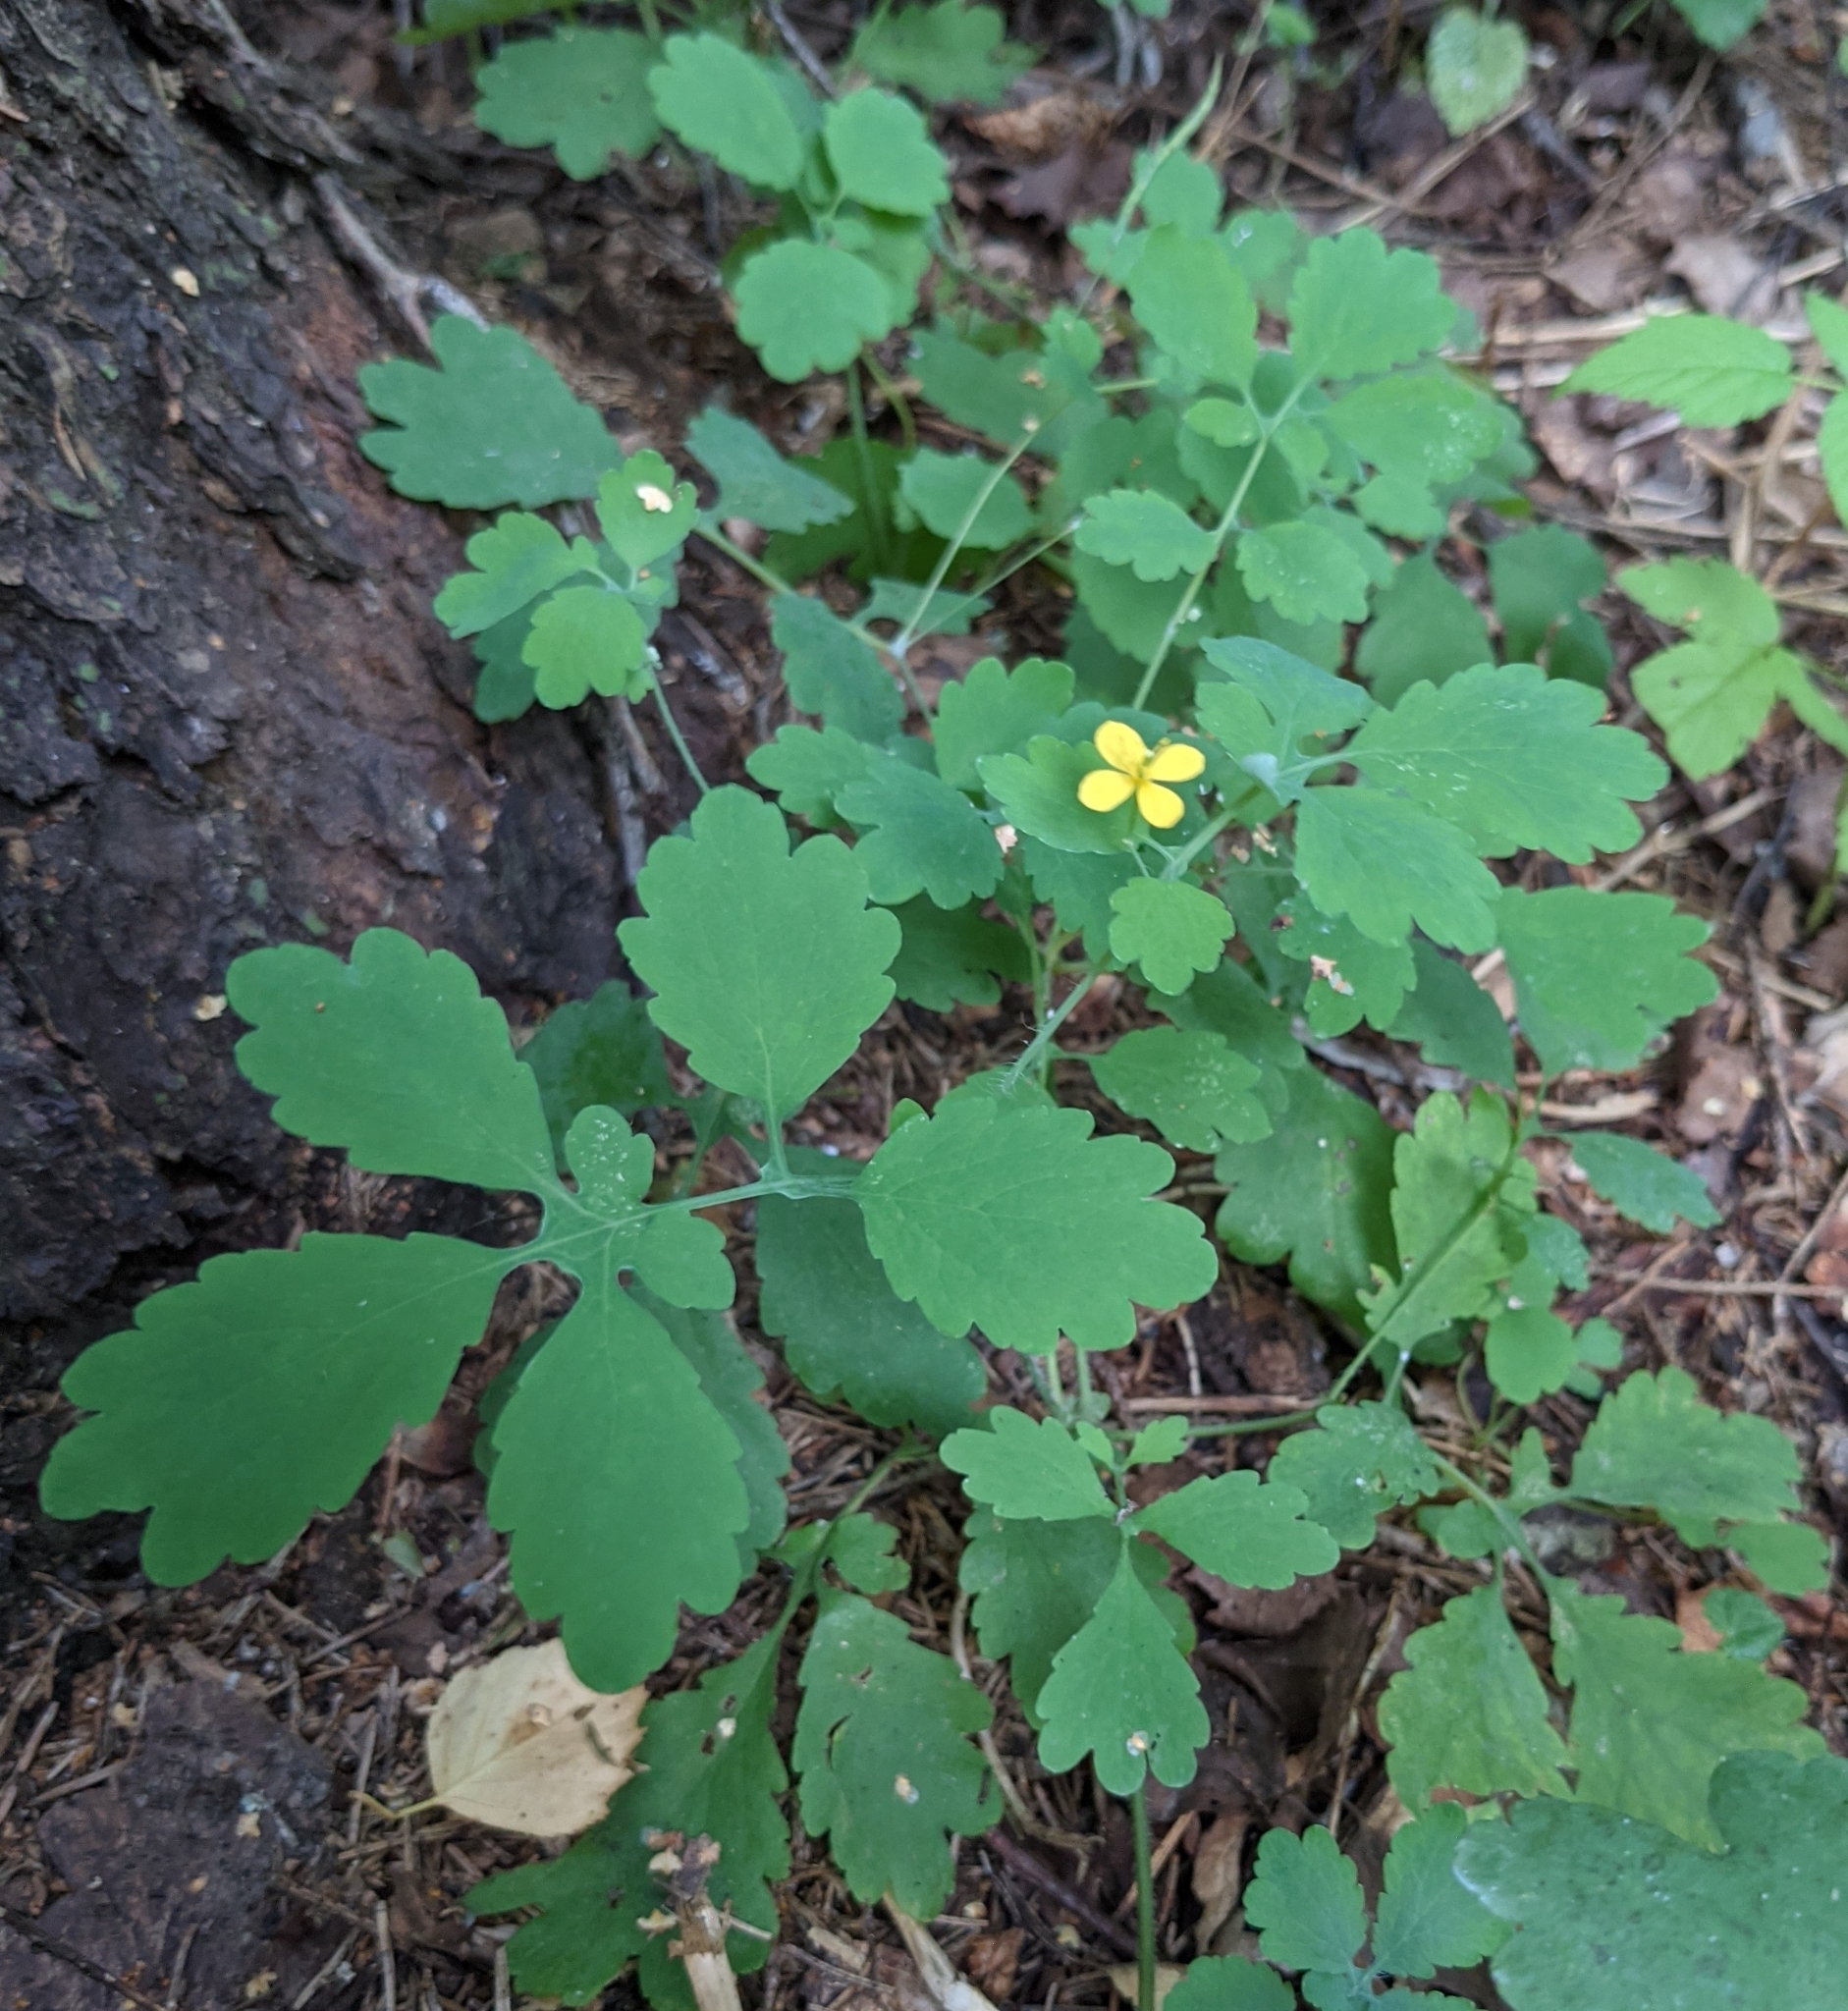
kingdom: Plantae
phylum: Tracheophyta
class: Magnoliopsida
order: Ranunculales
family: Papaveraceae
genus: Chelidonium
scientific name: Chelidonium majus
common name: Greater celandine
